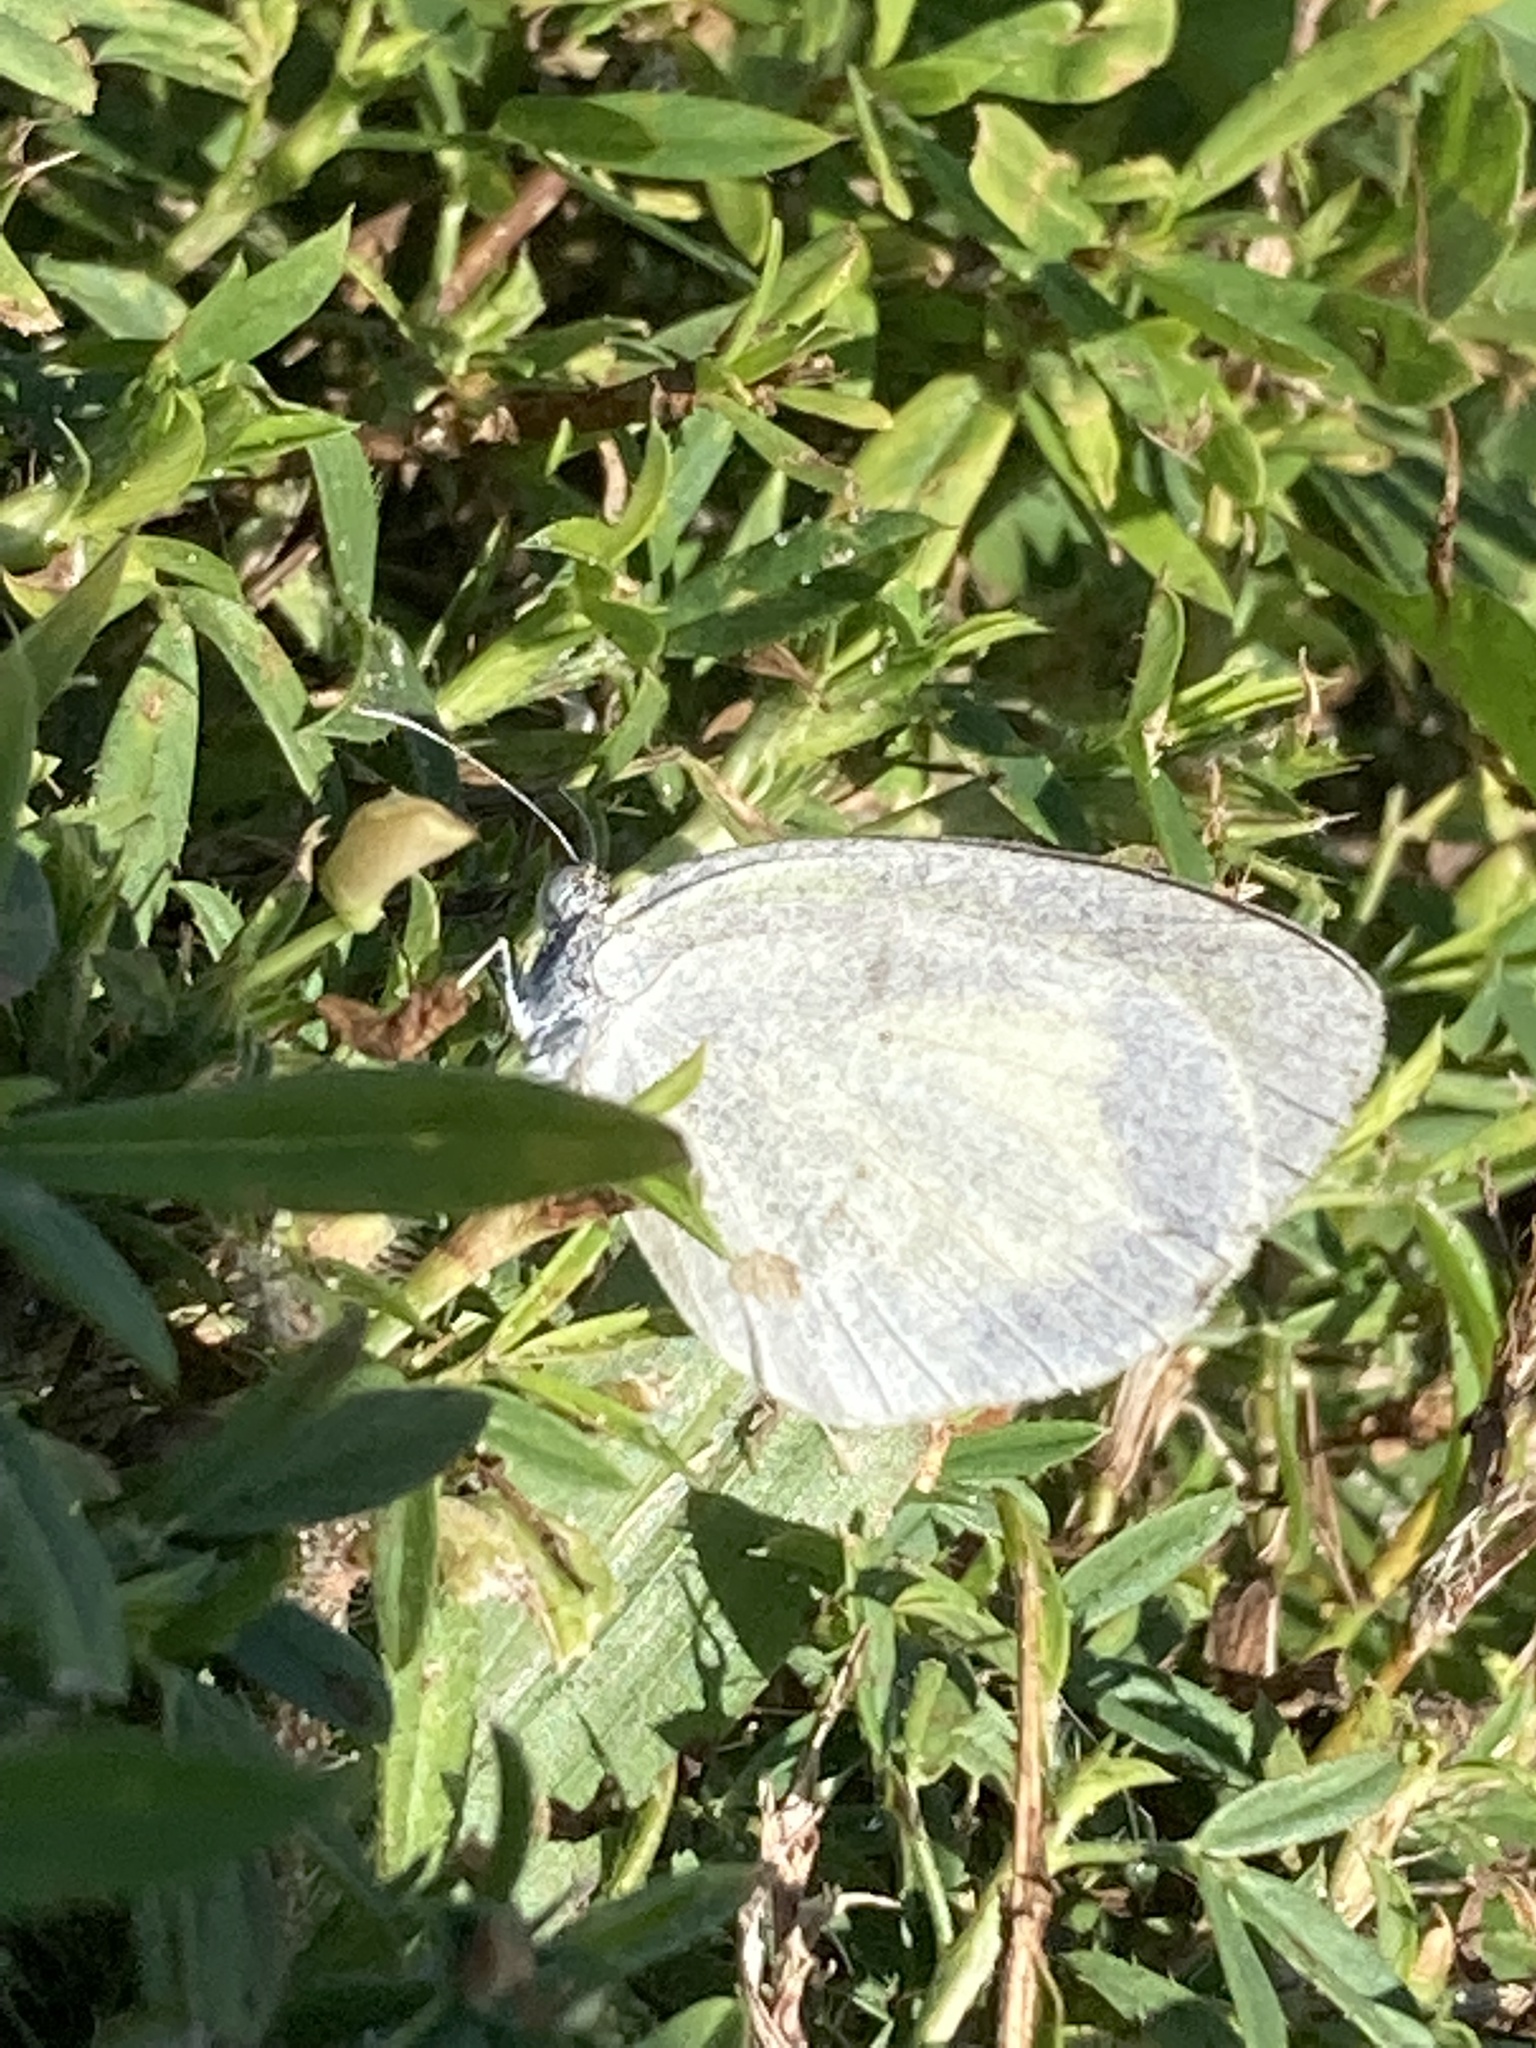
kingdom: Animalia
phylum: Arthropoda
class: Insecta
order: Lepidoptera
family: Pieridae
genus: Eurema
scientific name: Eurema daira
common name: Barred sulphur
